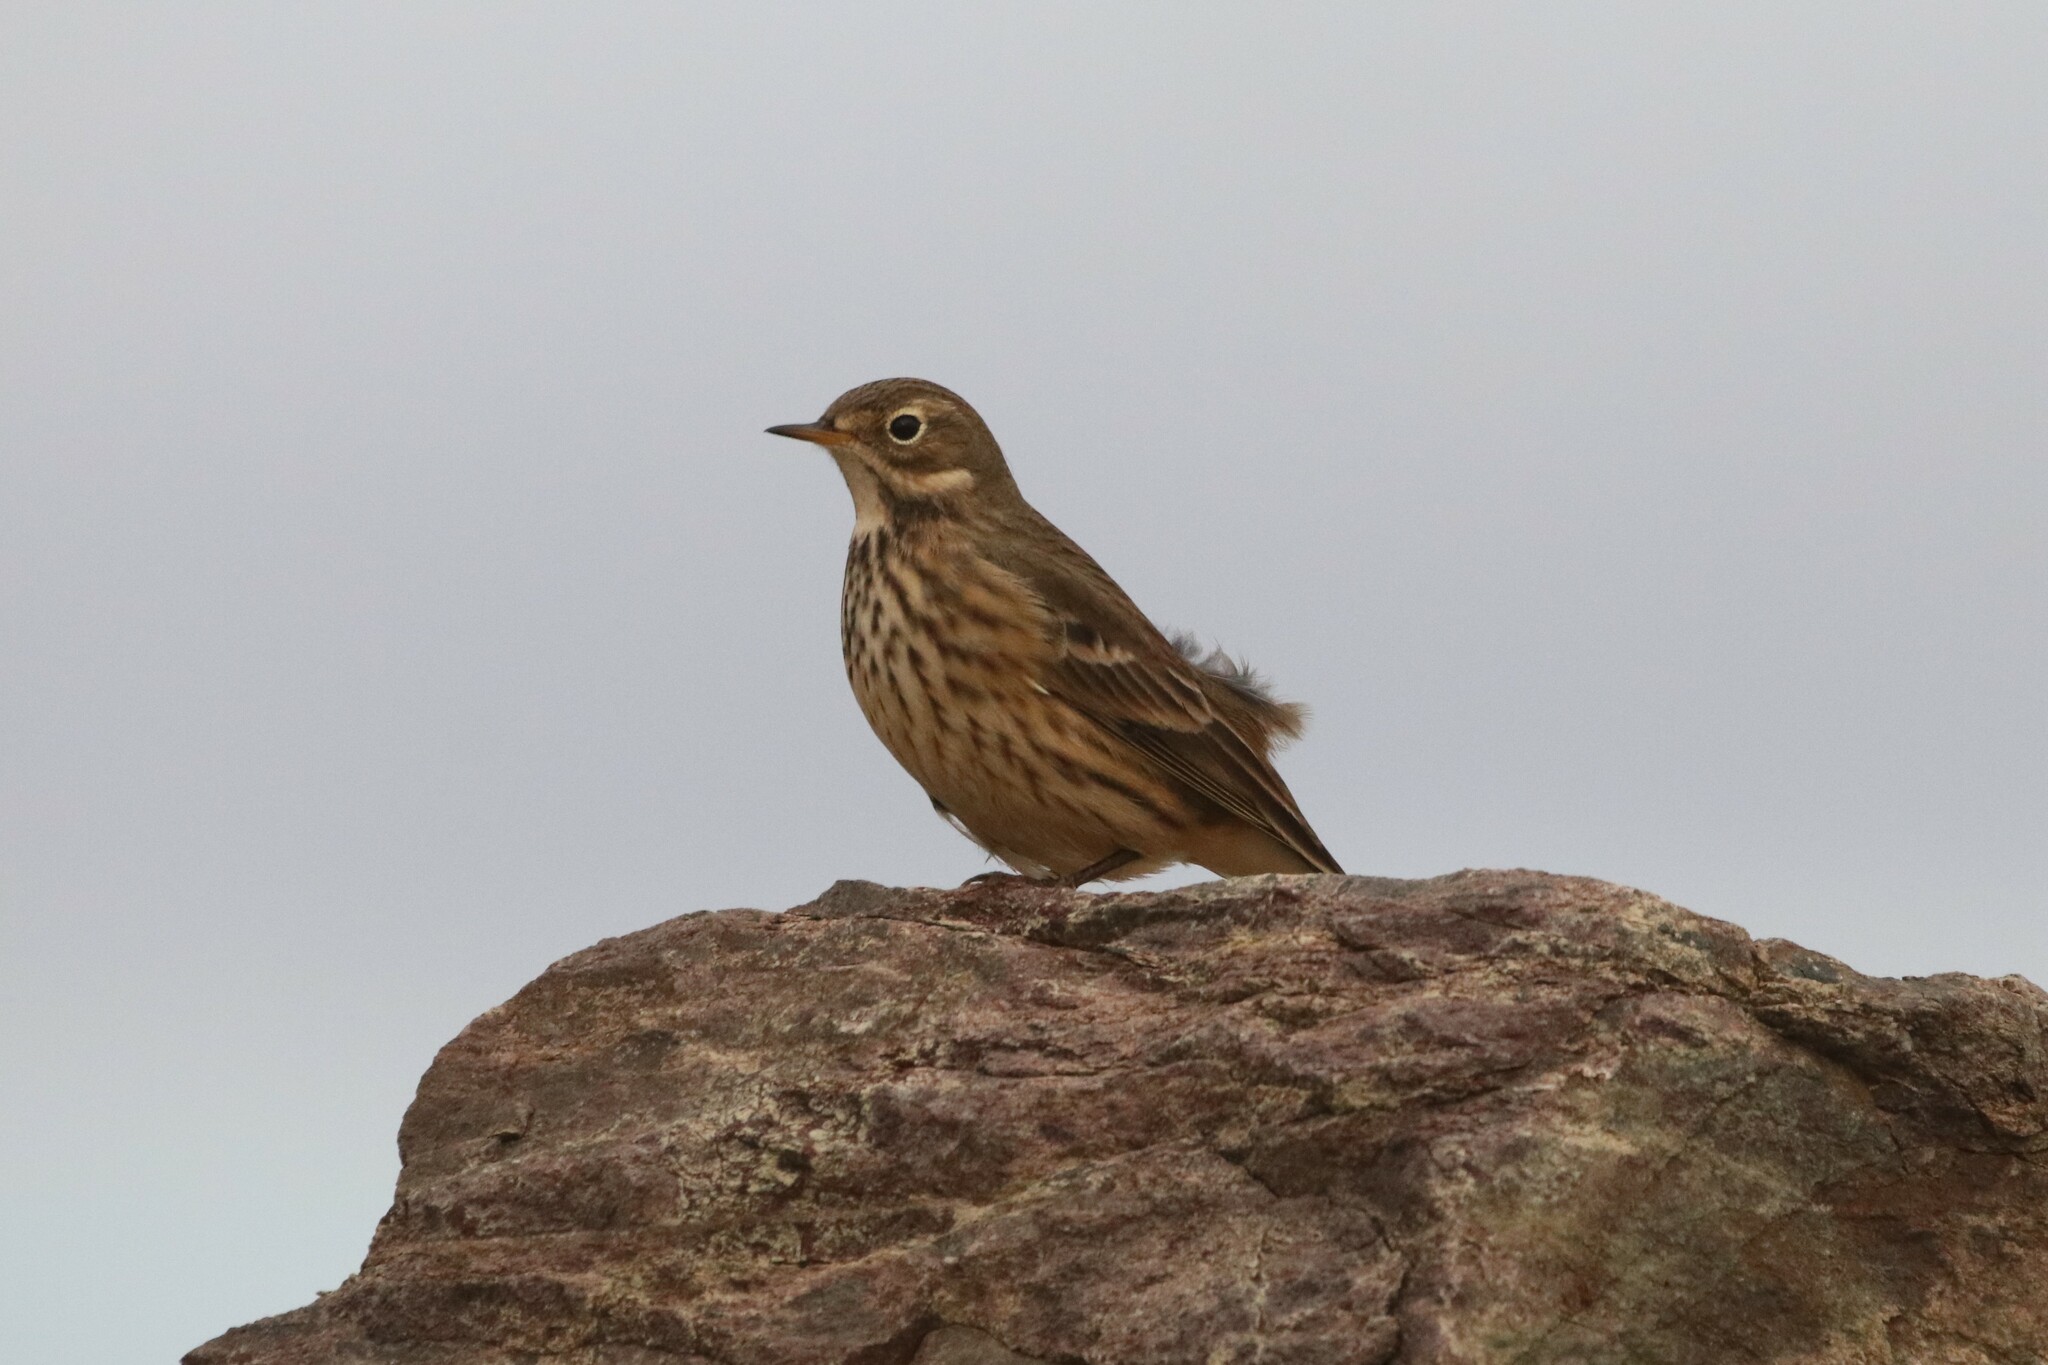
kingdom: Animalia
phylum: Chordata
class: Aves
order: Passeriformes
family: Motacillidae
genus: Anthus
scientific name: Anthus rubescens
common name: Buff-bellied pipit
